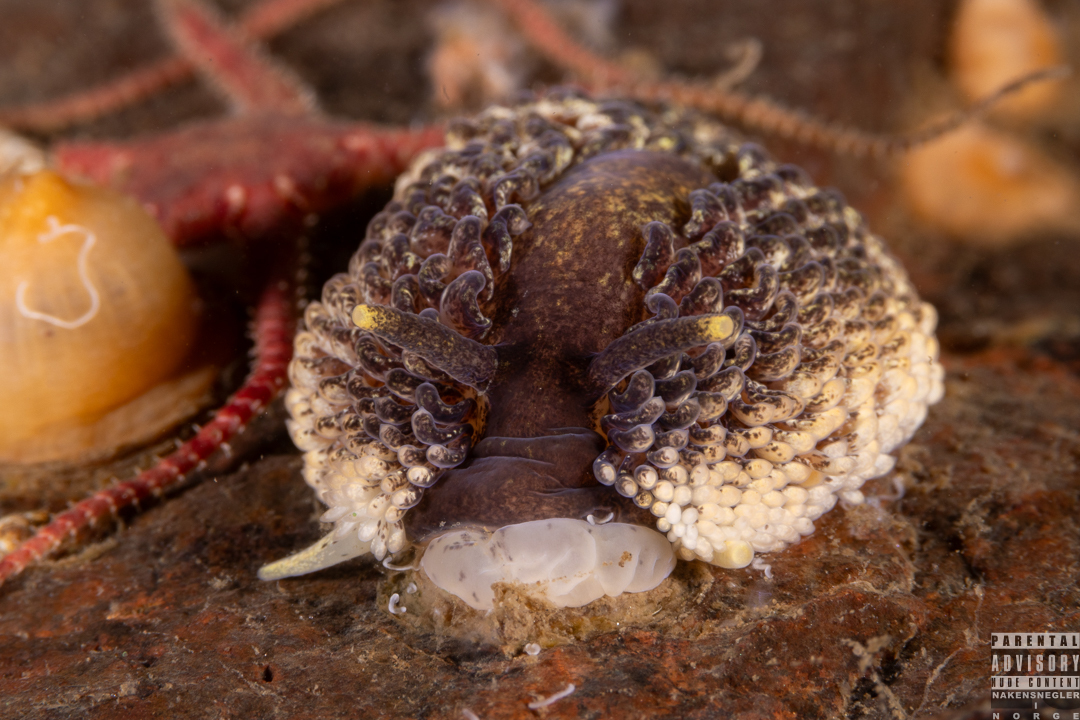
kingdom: Animalia
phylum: Mollusca
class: Gastropoda
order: Nudibranchia
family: Aeolidiidae
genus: Aeolidia
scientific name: Aeolidia papillosa
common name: Common grey sea slug
